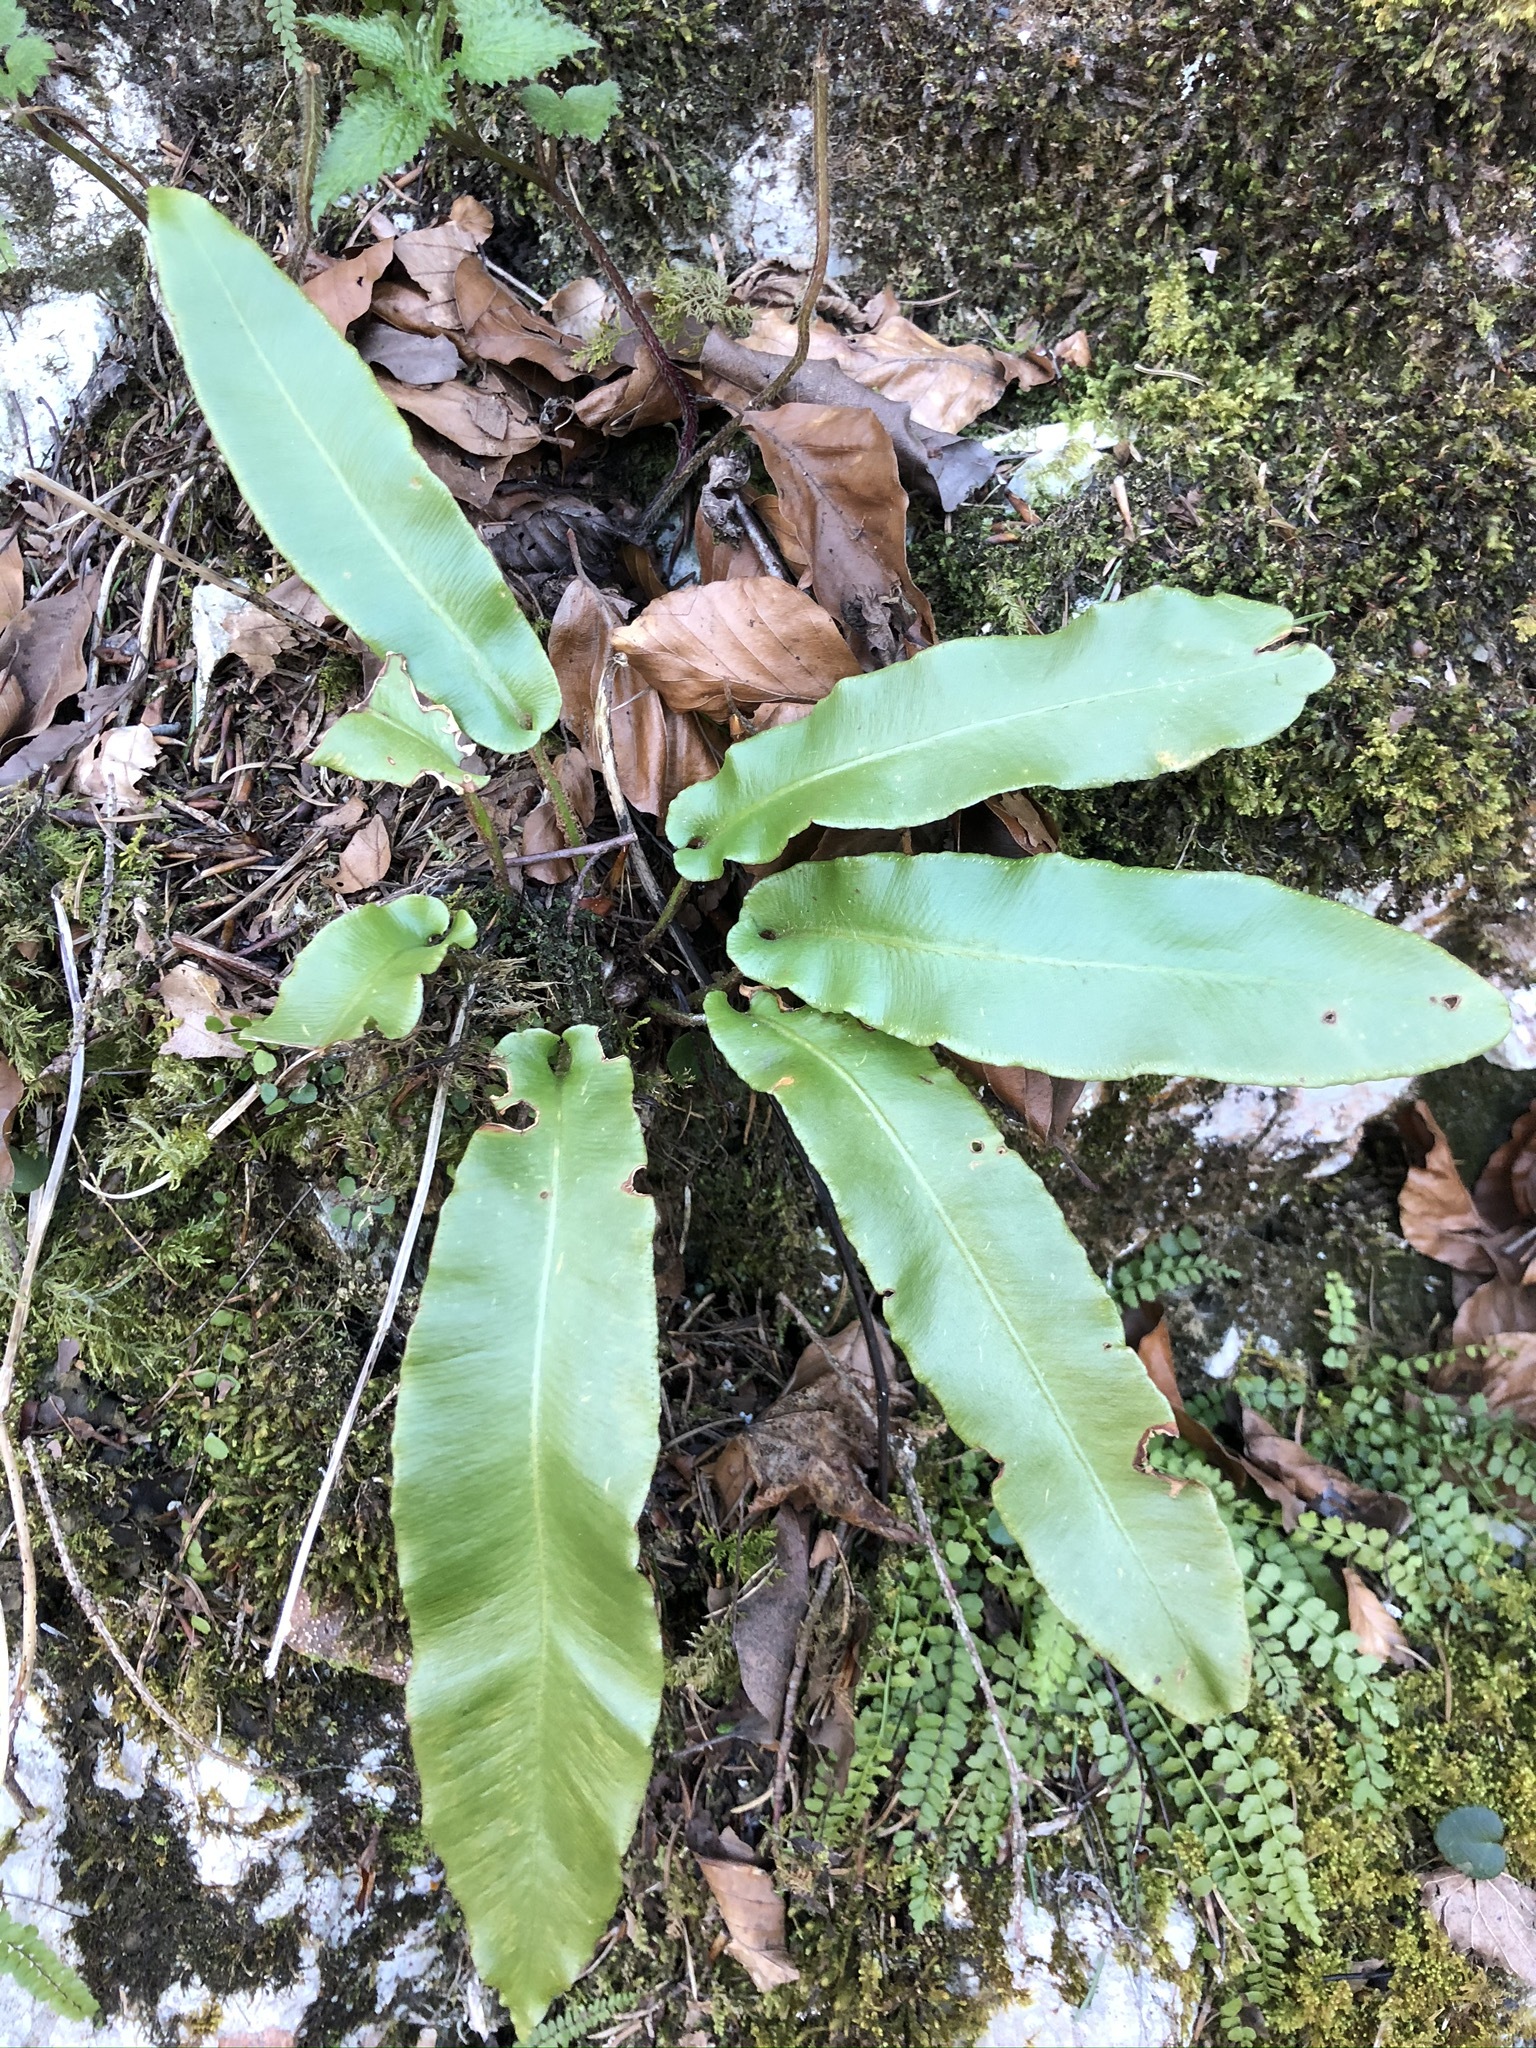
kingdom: Plantae
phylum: Tracheophyta
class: Polypodiopsida
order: Polypodiales
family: Aspleniaceae
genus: Asplenium
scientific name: Asplenium scolopendrium
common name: Hart's-tongue fern
